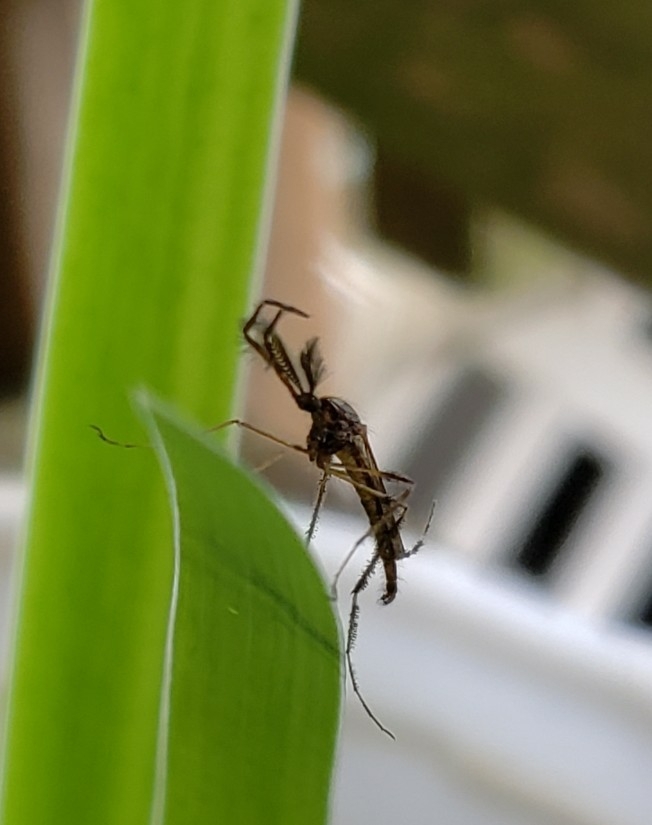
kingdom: Animalia
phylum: Arthropoda
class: Insecta
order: Diptera
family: Culicidae
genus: Psorophora
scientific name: Psorophora ciliata
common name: Gallinipper
